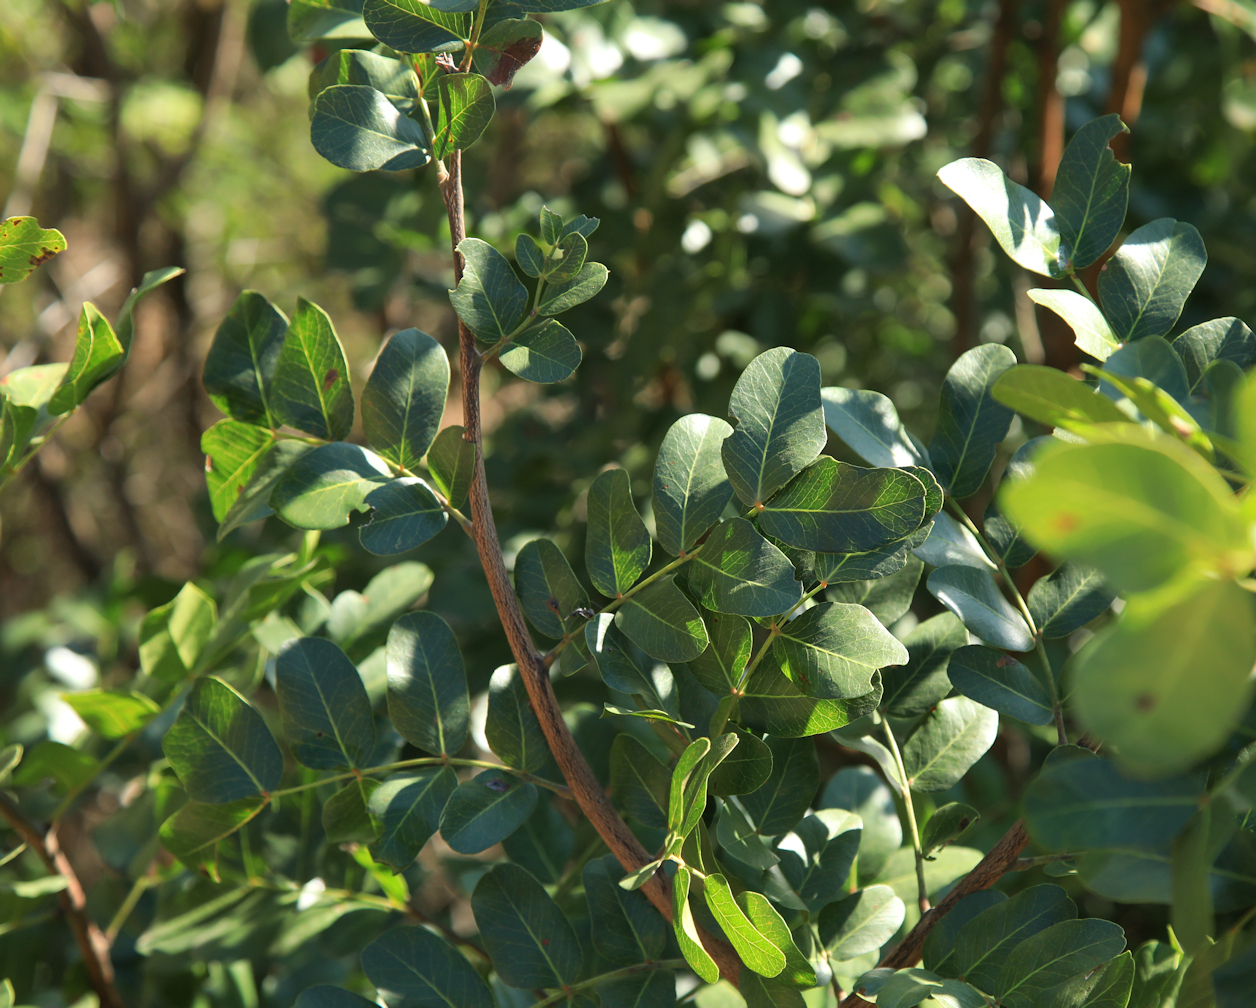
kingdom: Plantae
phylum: Tracheophyta
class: Magnoliopsida
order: Fabales
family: Fabaceae
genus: Schotia
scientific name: Schotia brachypetala
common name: Weeping boer-bean
